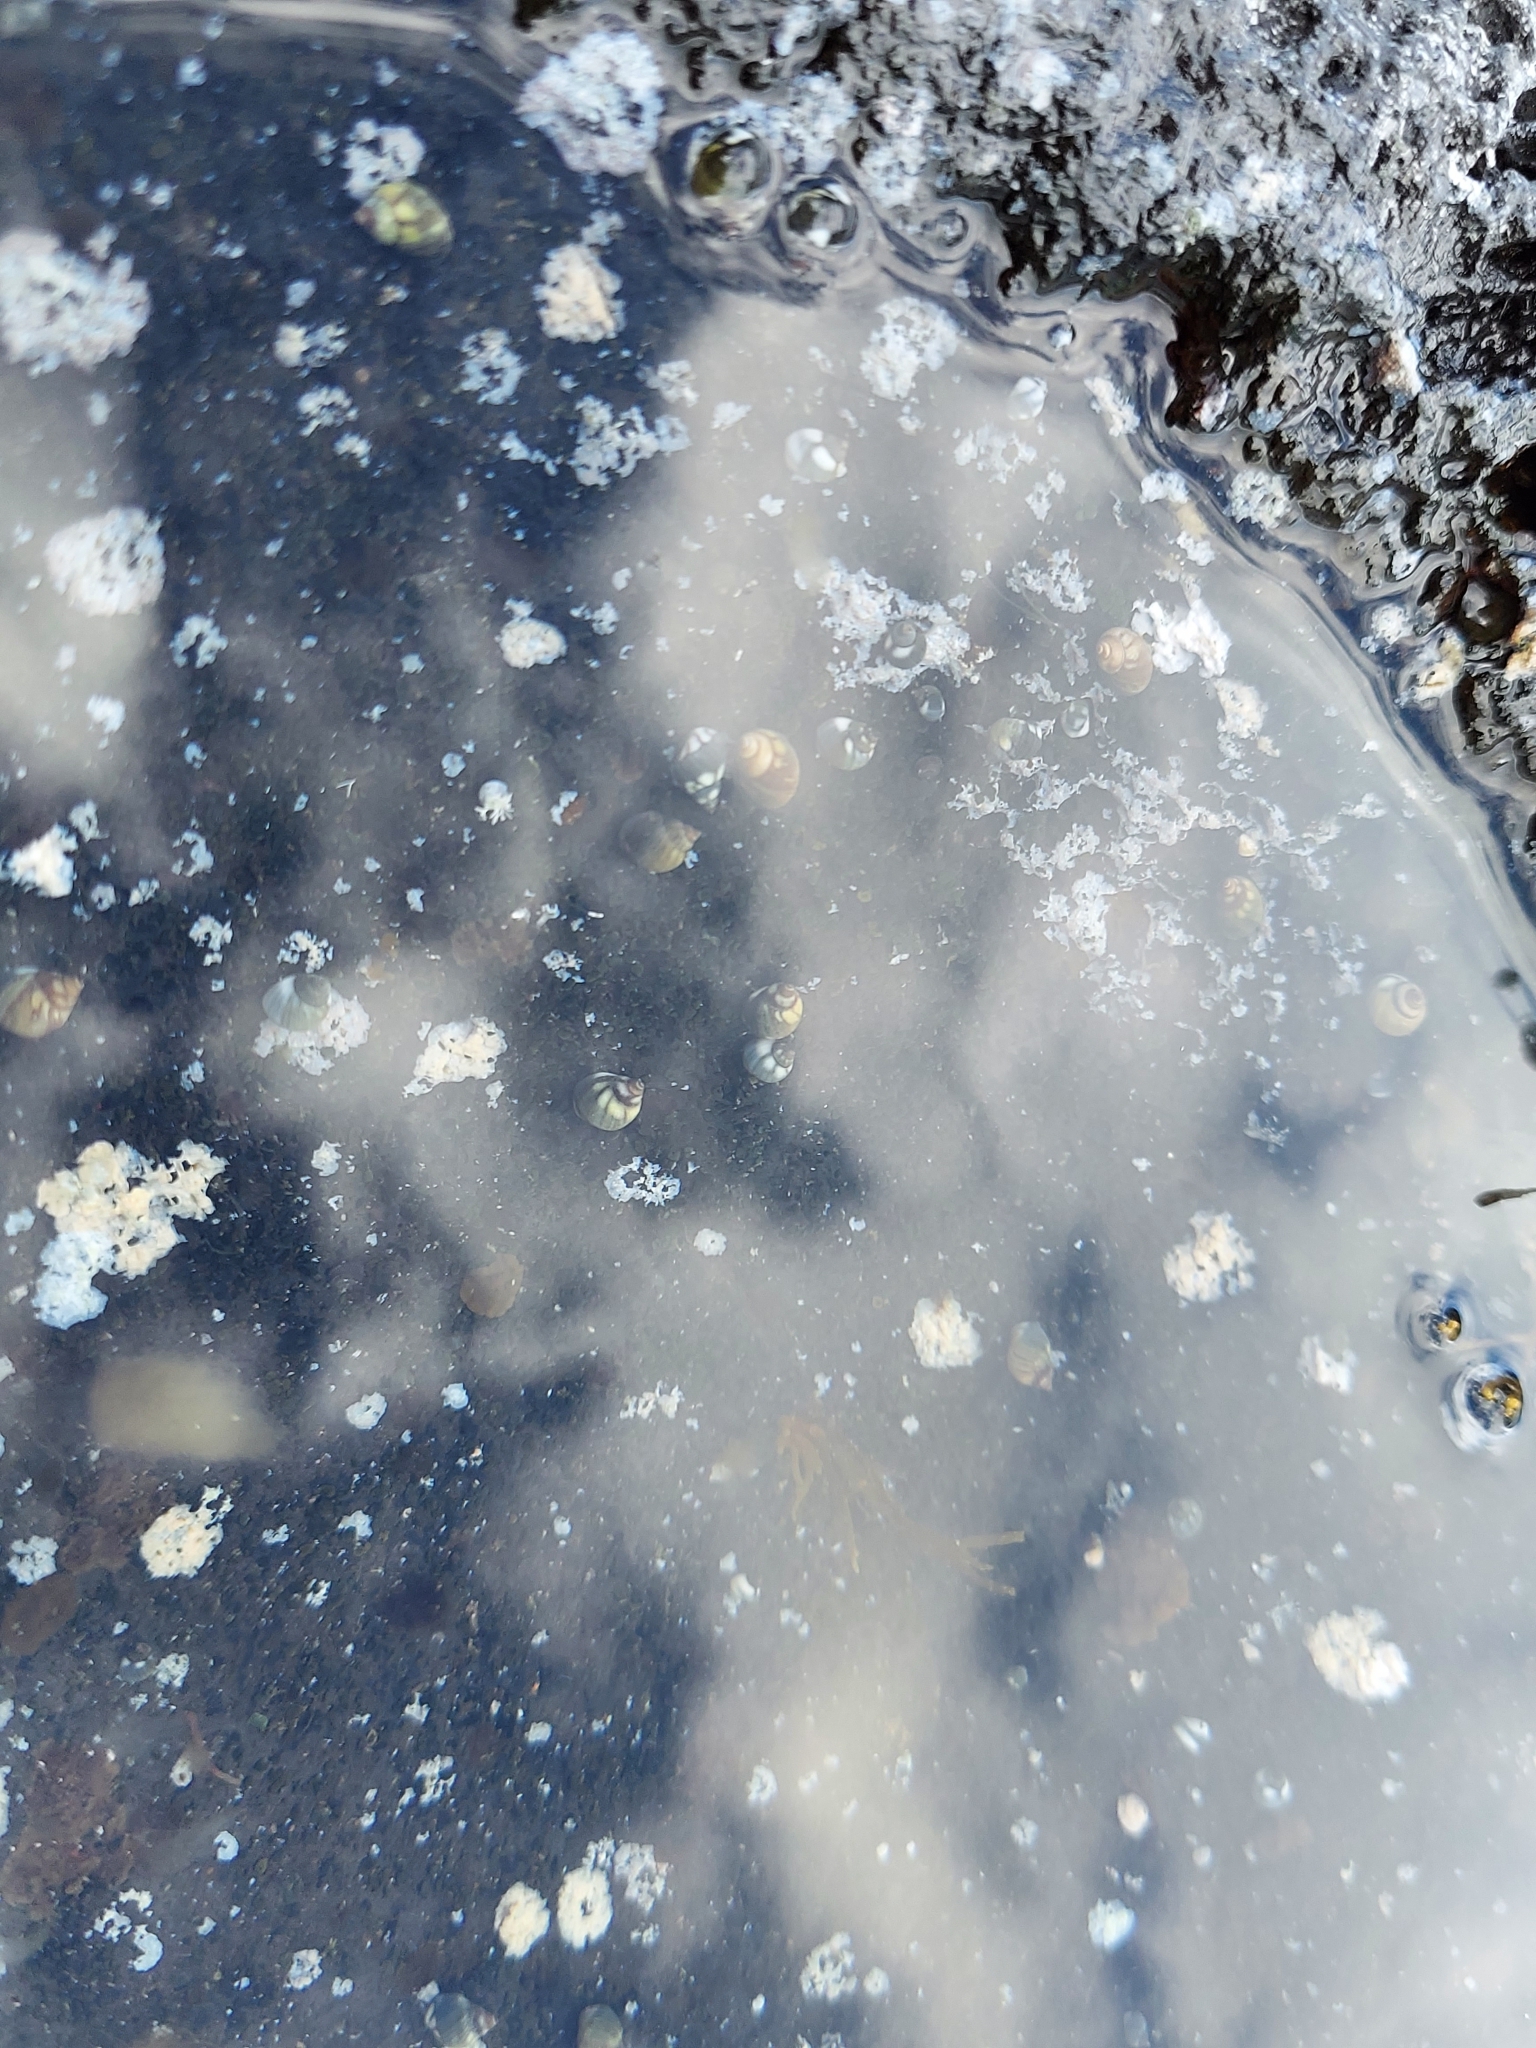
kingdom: Animalia
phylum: Mollusca
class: Gastropoda
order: Littorinimorpha
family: Littorinidae
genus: Echinolittorina
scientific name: Echinolittorina hawaiiensis
